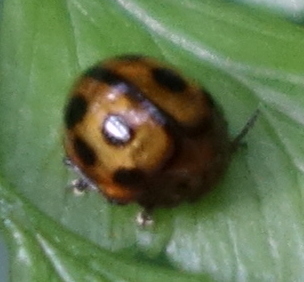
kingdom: Animalia
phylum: Arthropoda
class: Insecta
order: Coleoptera
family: Chrysomelidae
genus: Halticorcus
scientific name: Halticorcus miwai
